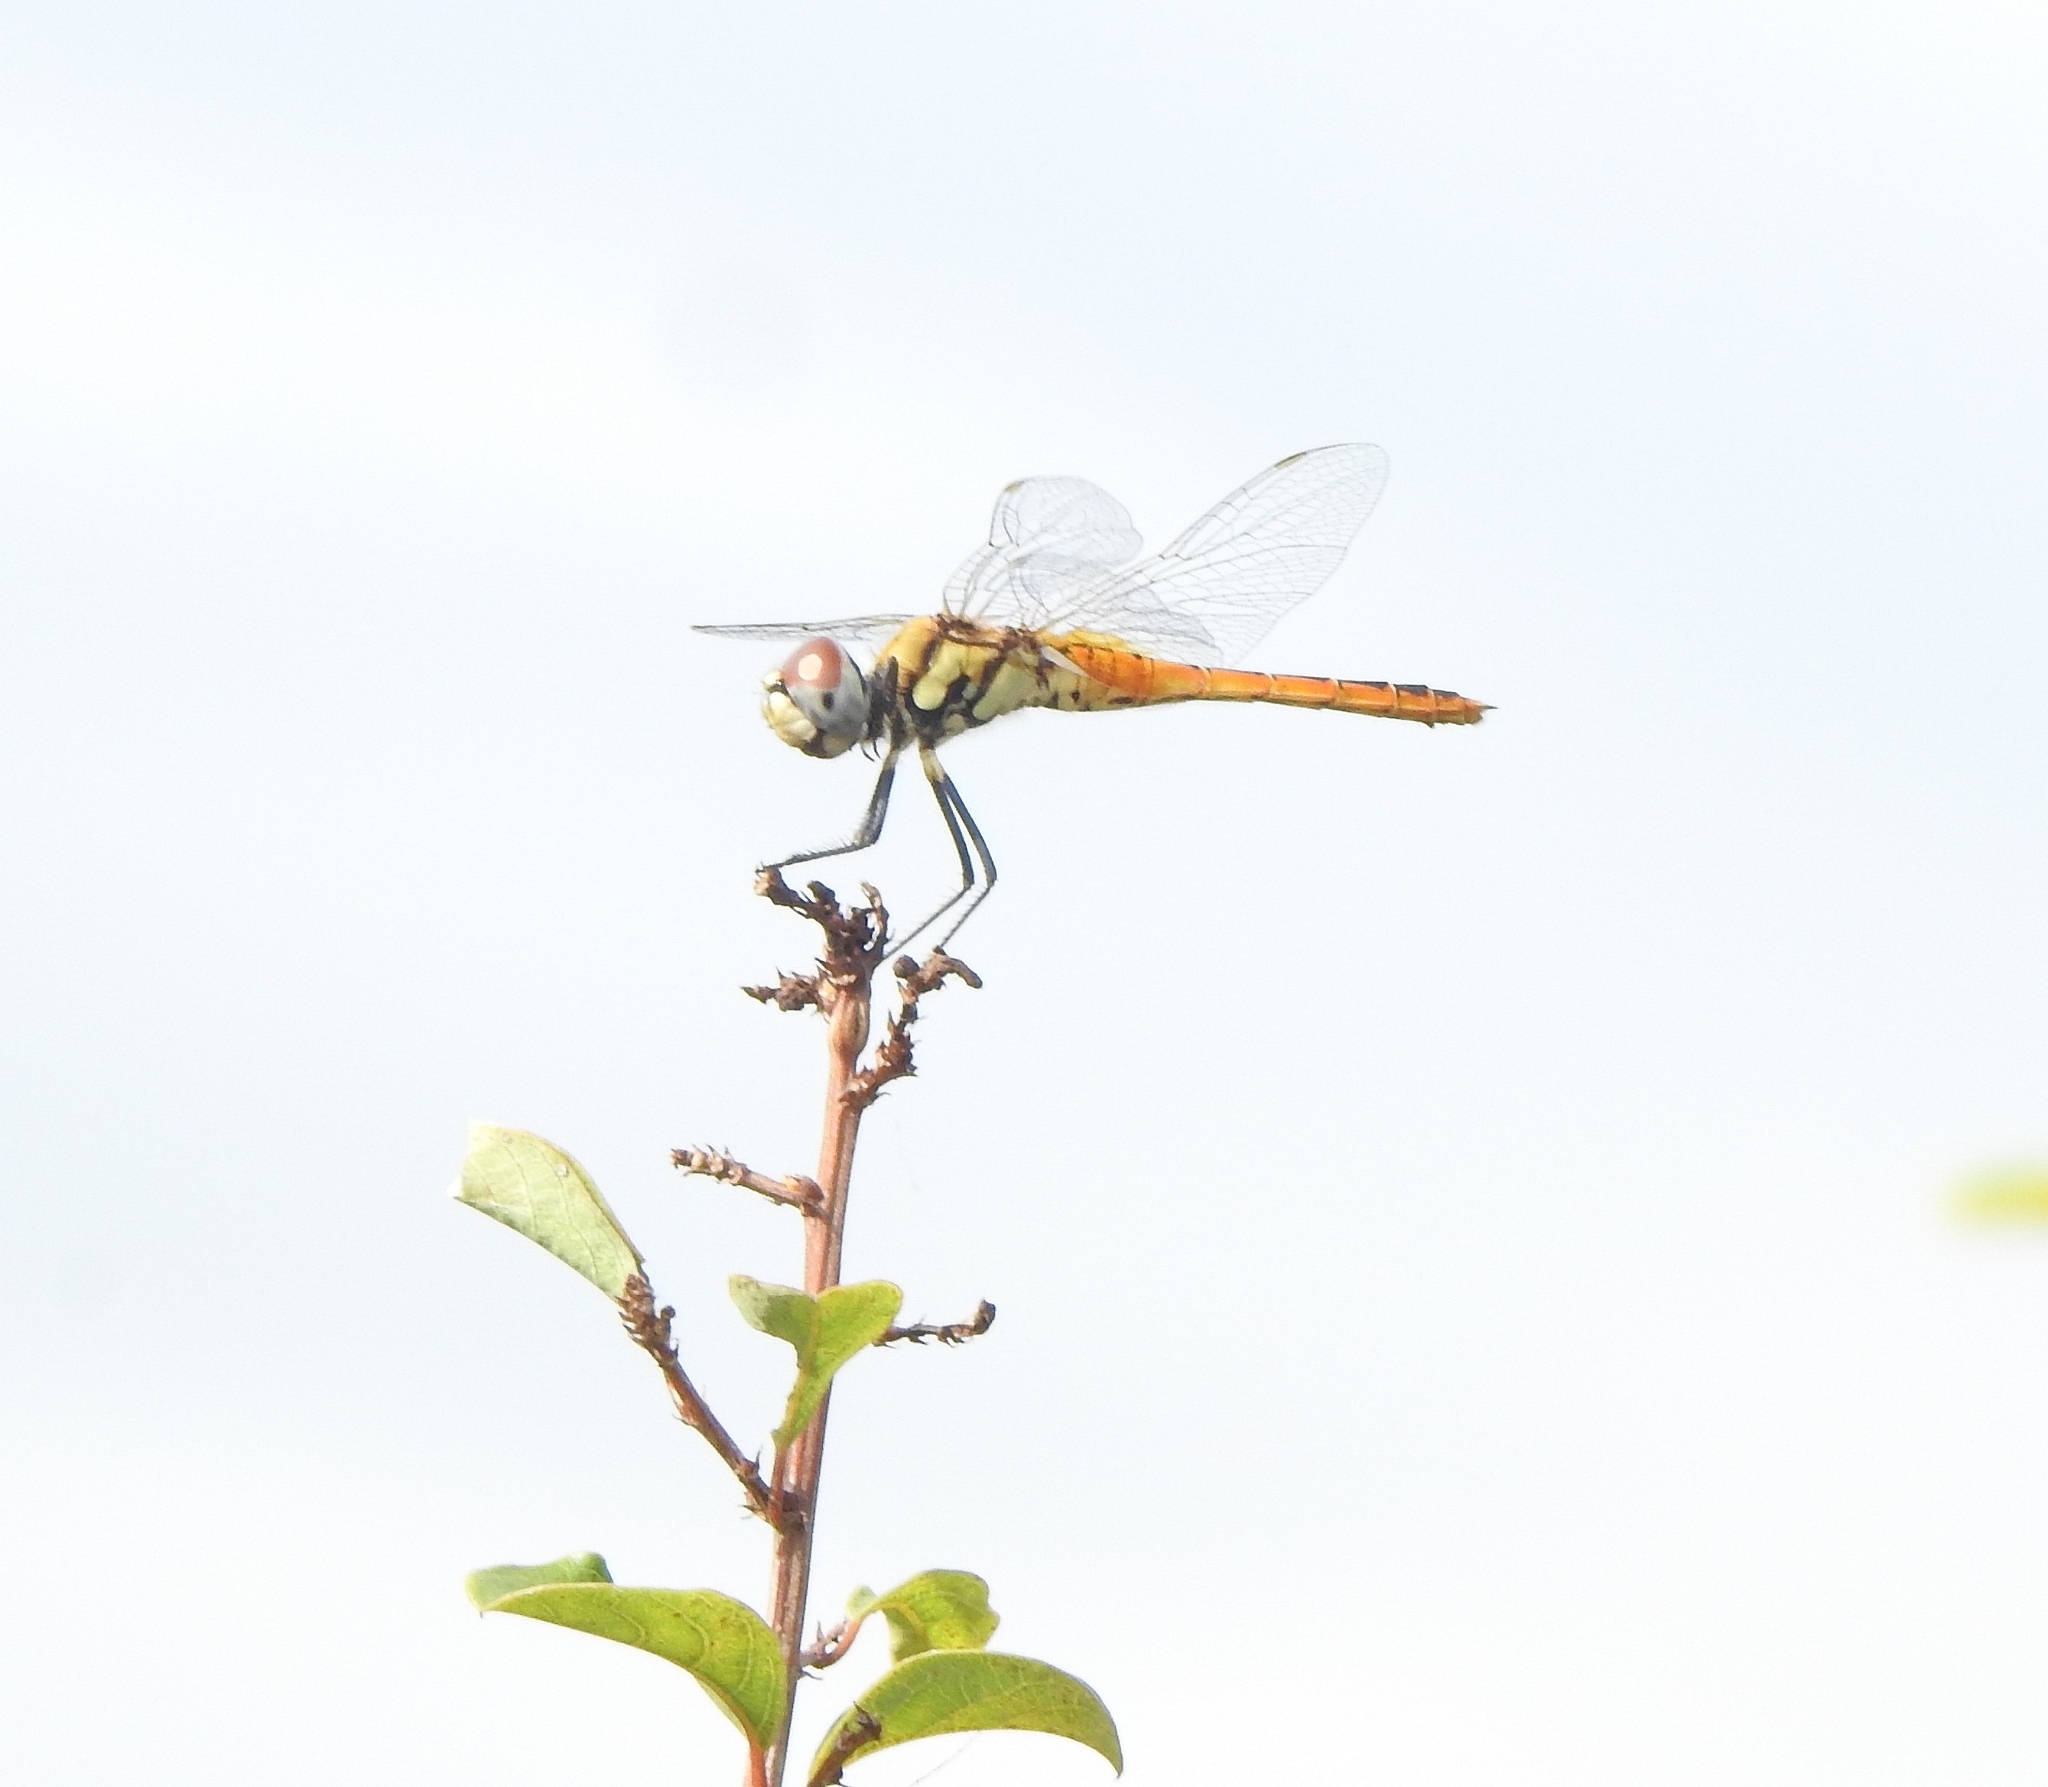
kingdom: Animalia
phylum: Arthropoda
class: Insecta
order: Odonata
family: Libellulidae
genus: Macrodiplax
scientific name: Macrodiplax cora
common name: Coastal glider
